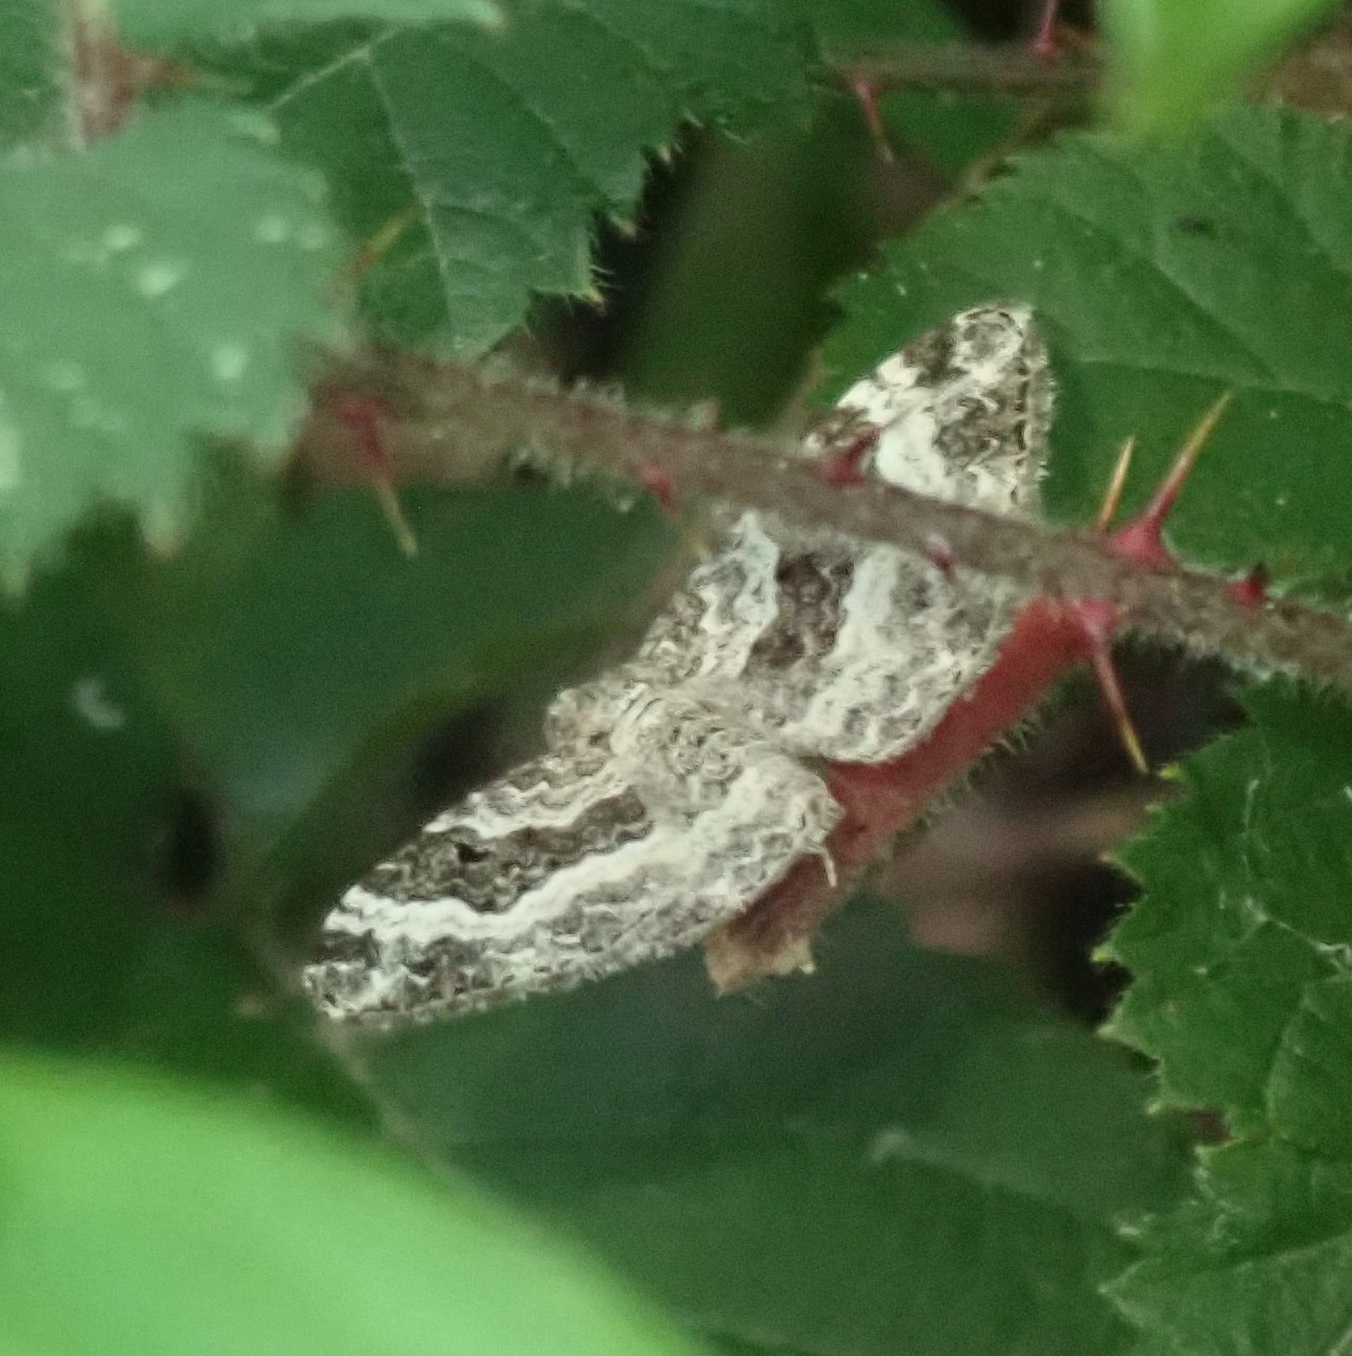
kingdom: Animalia
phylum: Arthropoda
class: Insecta
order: Lepidoptera
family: Geometridae
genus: Epirrhoe
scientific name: Epirrhoe alternata
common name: Common carpet
